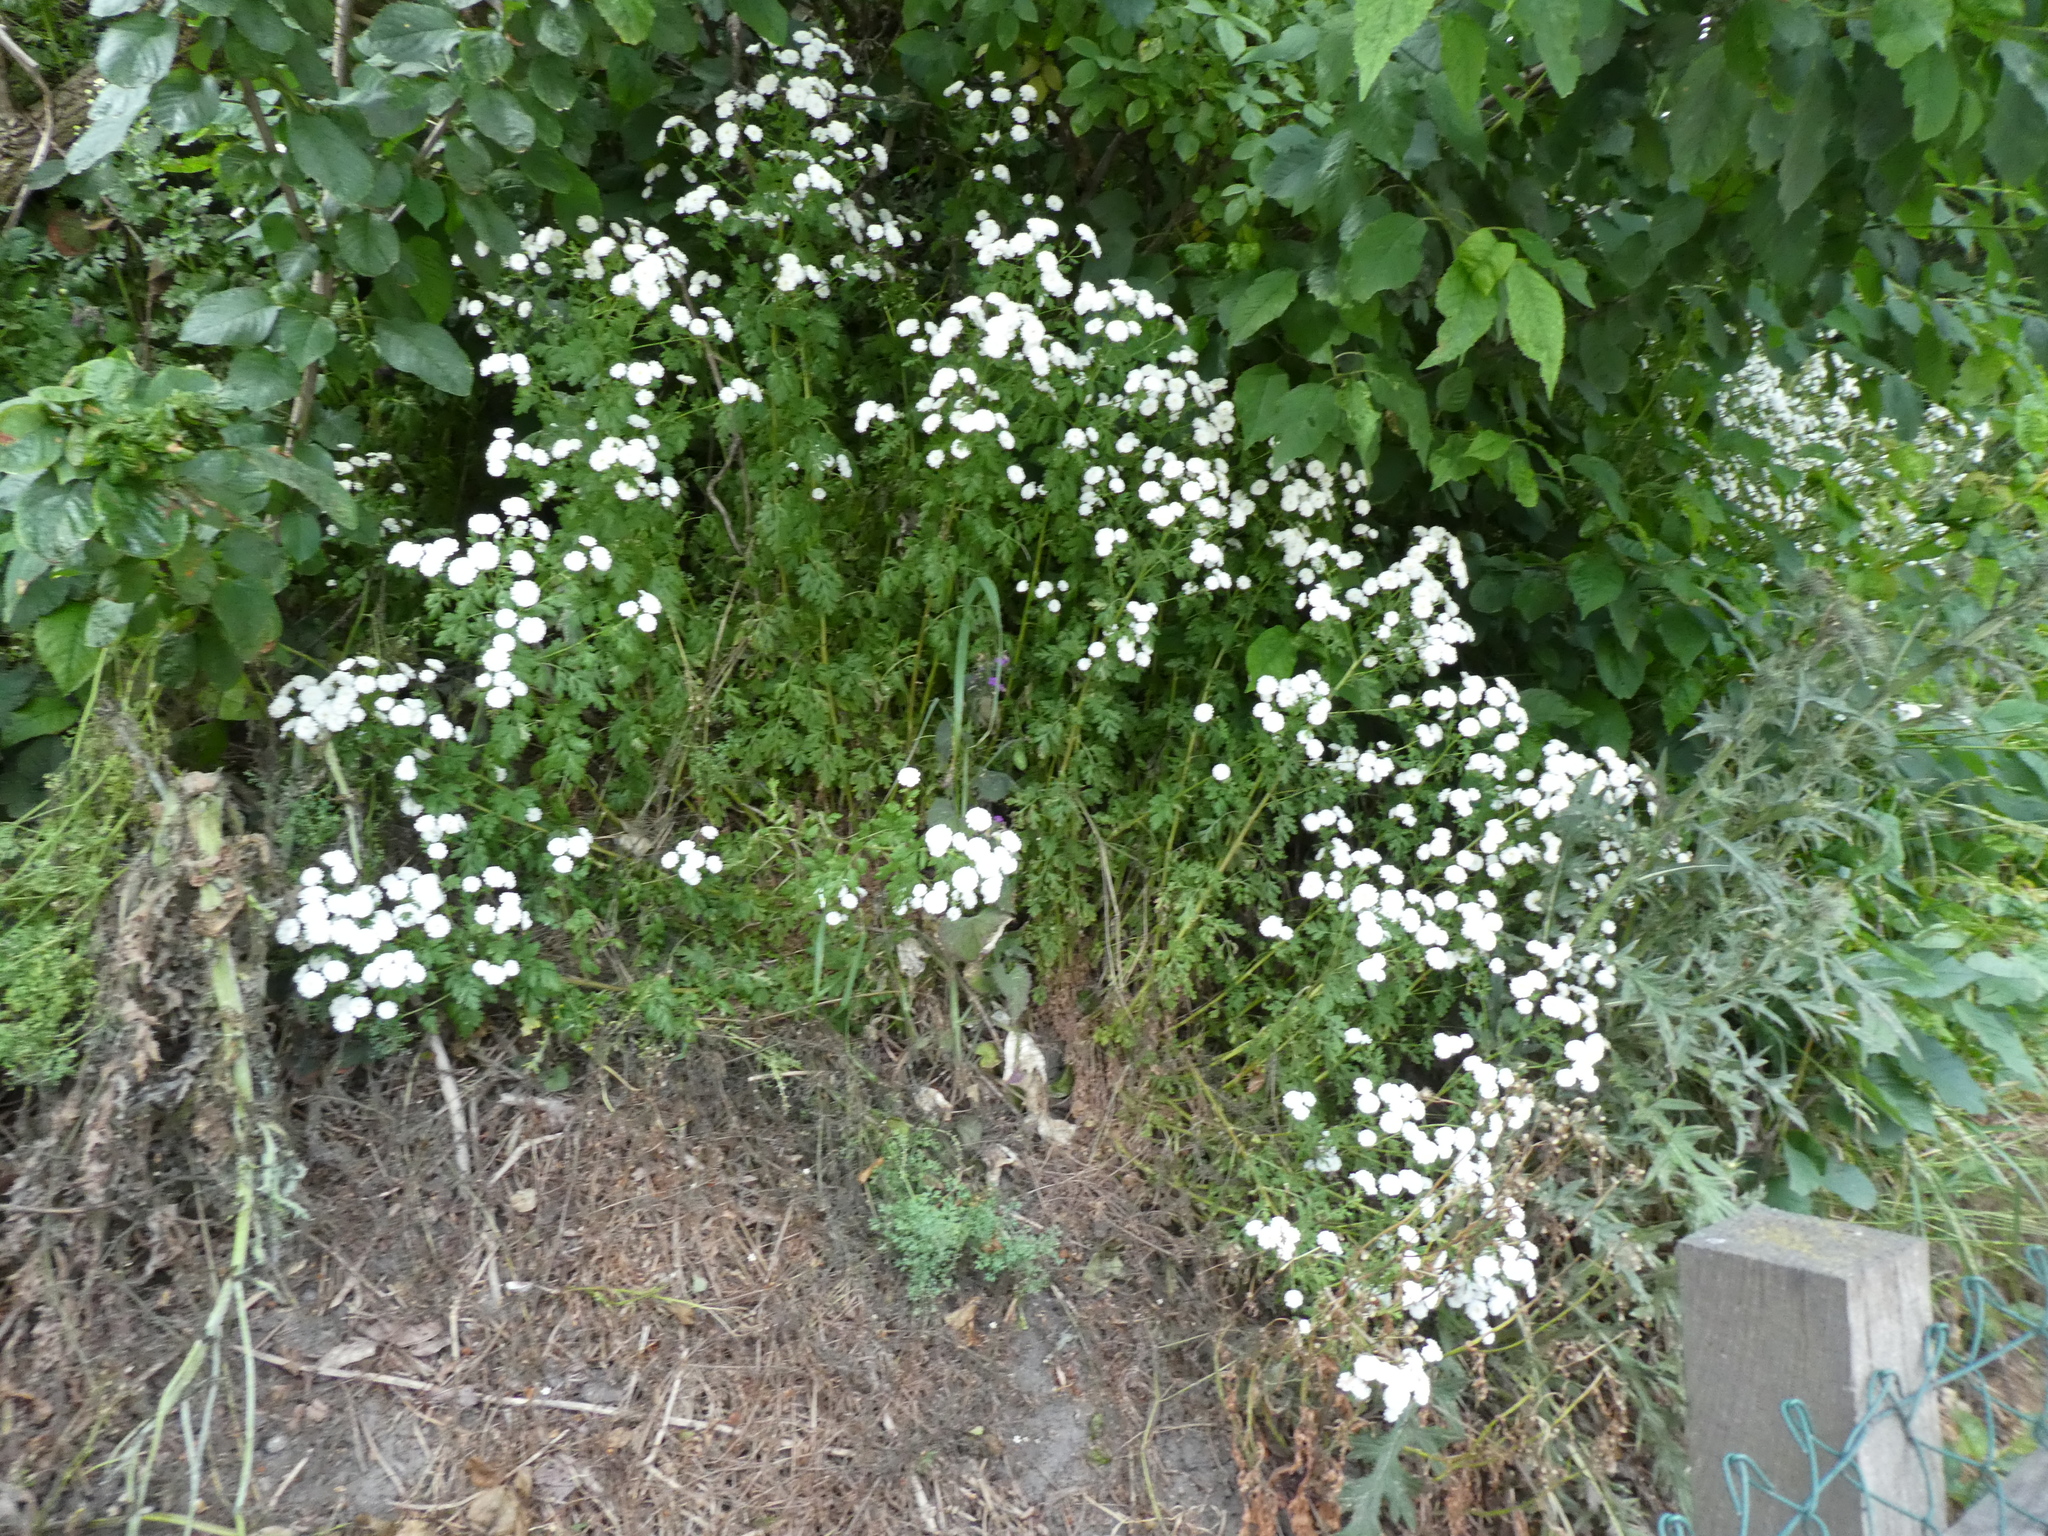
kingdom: Plantae
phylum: Tracheophyta
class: Magnoliopsida
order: Asterales
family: Asteraceae
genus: Tanacetum
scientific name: Tanacetum parthenium
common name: Feverfew
